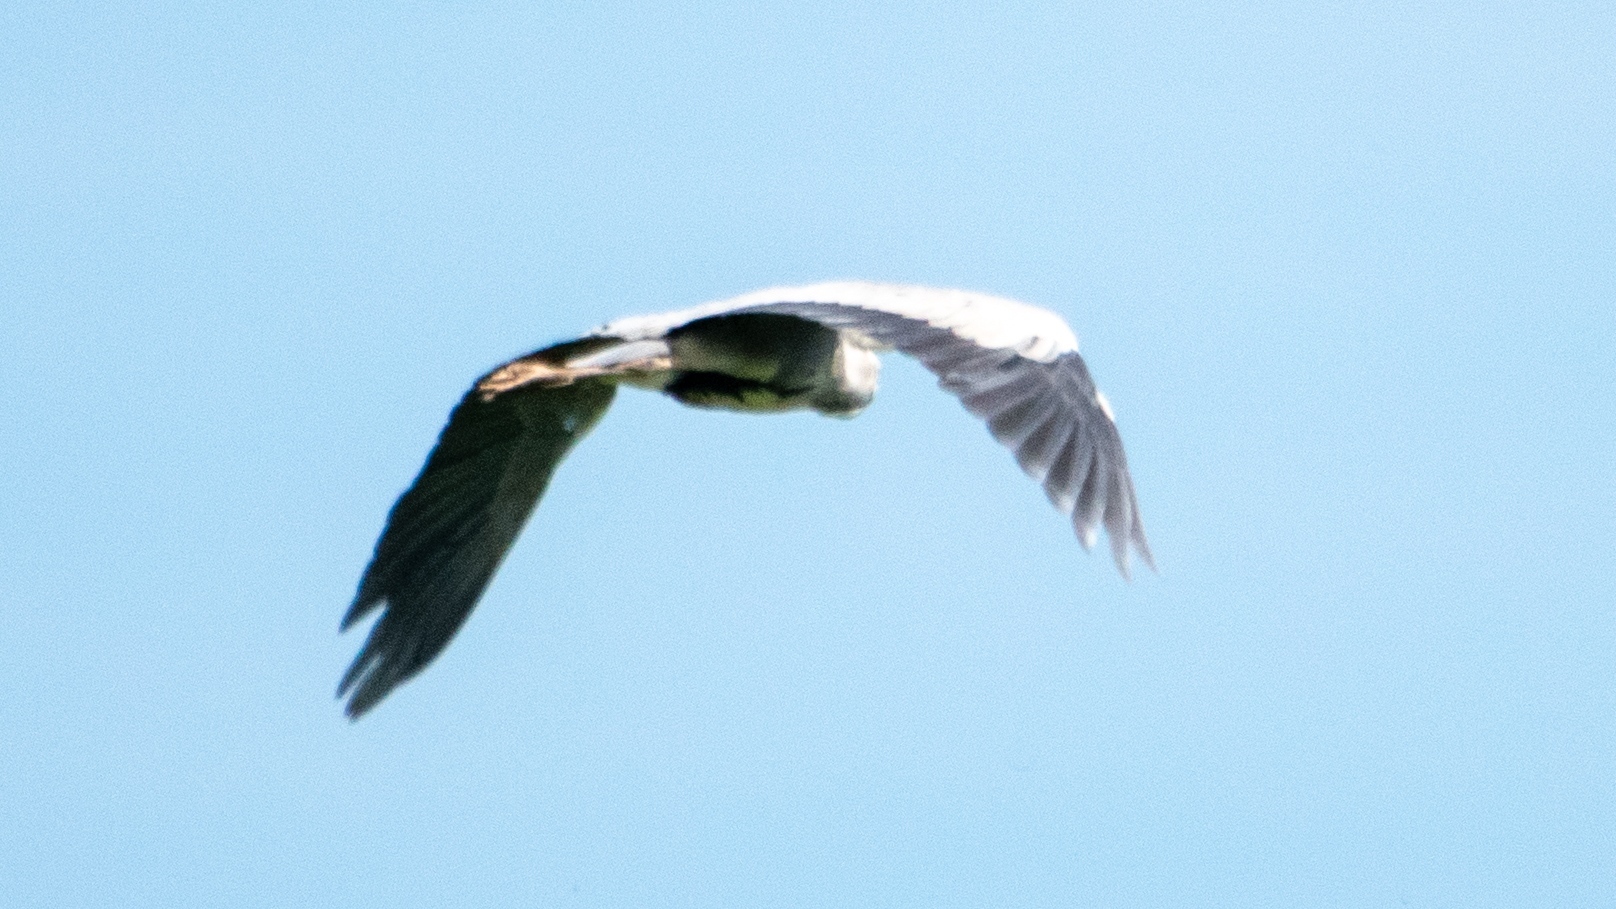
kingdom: Animalia
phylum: Chordata
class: Aves
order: Pelecaniformes
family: Ardeidae
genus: Ardea
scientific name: Ardea cinerea
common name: Grey heron
